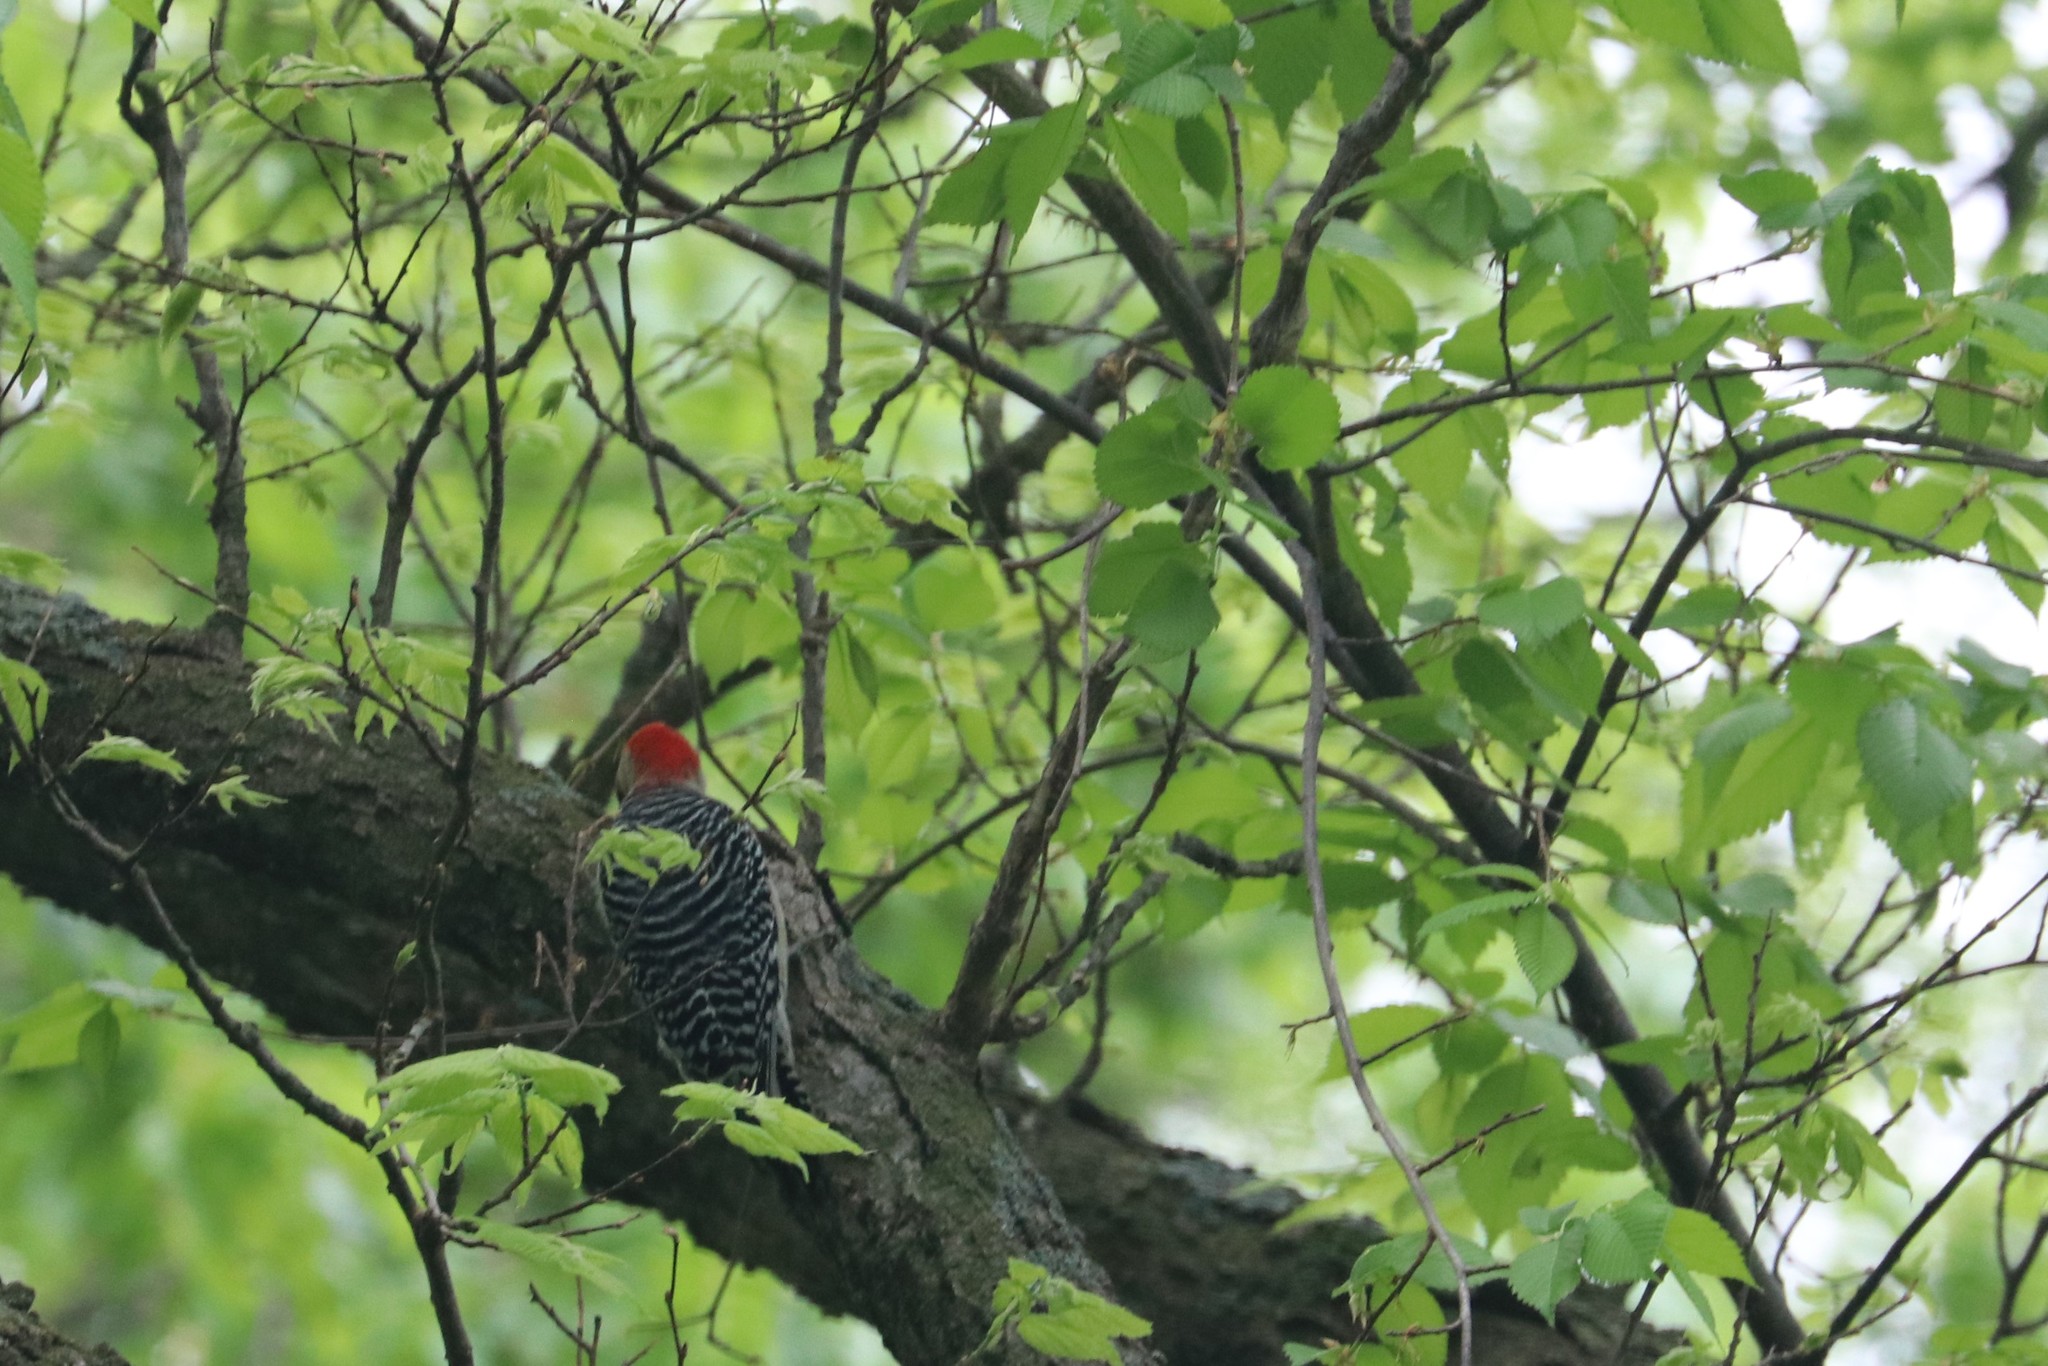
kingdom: Animalia
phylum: Chordata
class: Aves
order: Piciformes
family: Picidae
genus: Melanerpes
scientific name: Melanerpes carolinus
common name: Red-bellied woodpecker
